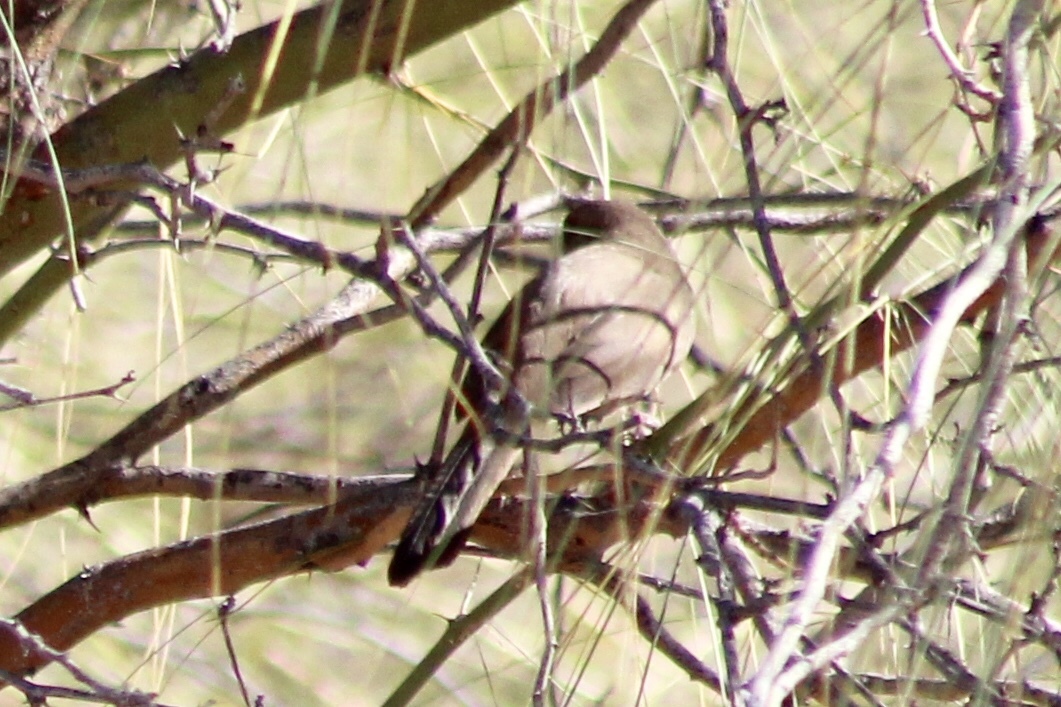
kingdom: Animalia
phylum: Chordata
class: Aves
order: Passeriformes
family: Passerellidae
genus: Melozone
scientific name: Melozone aberti
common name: Abert's towhee
